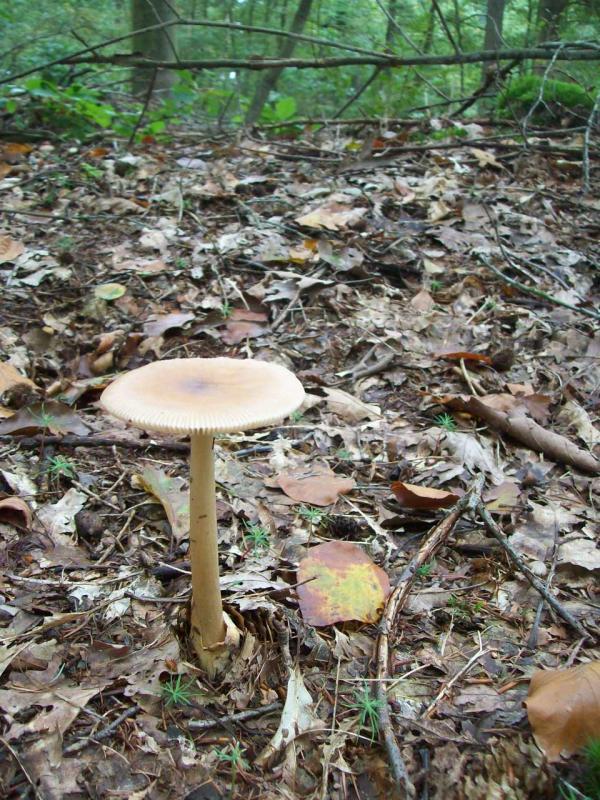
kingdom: Fungi
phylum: Basidiomycota
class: Agaricomycetes
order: Agaricales
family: Amanitaceae
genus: Amanita
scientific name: Amanita fulva
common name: Tawny grisette
